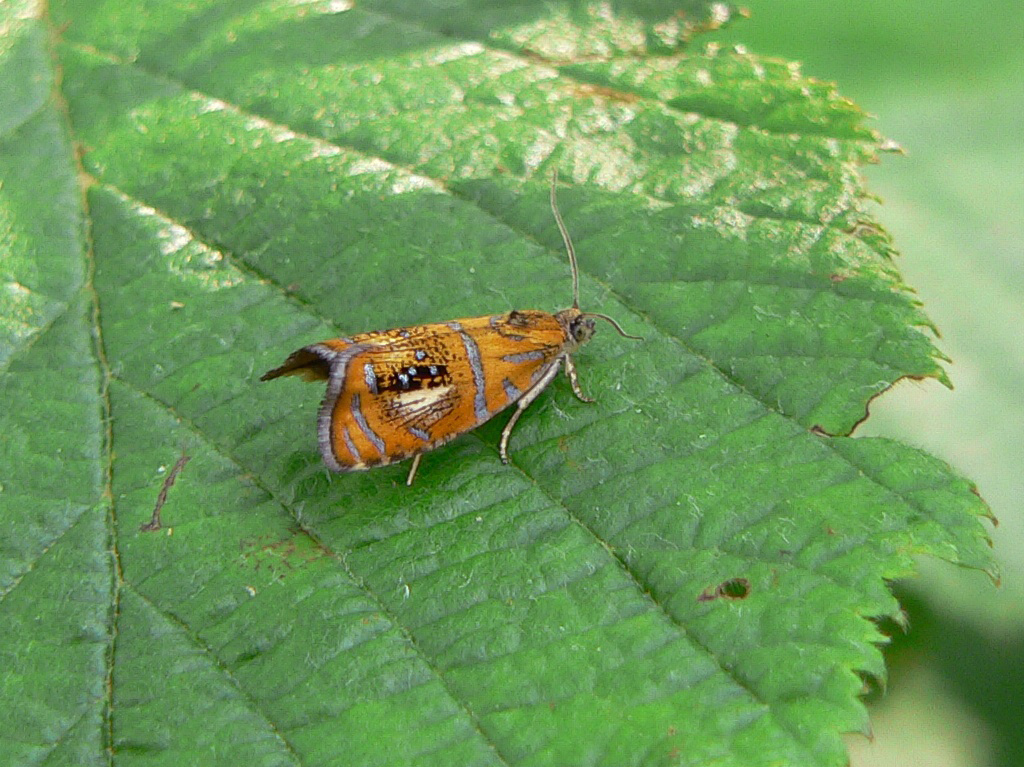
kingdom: Animalia
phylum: Arthropoda
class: Insecta
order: Lepidoptera
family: Tortricidae
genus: Olethreutes
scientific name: Olethreutes arcuella
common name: Arched marble
